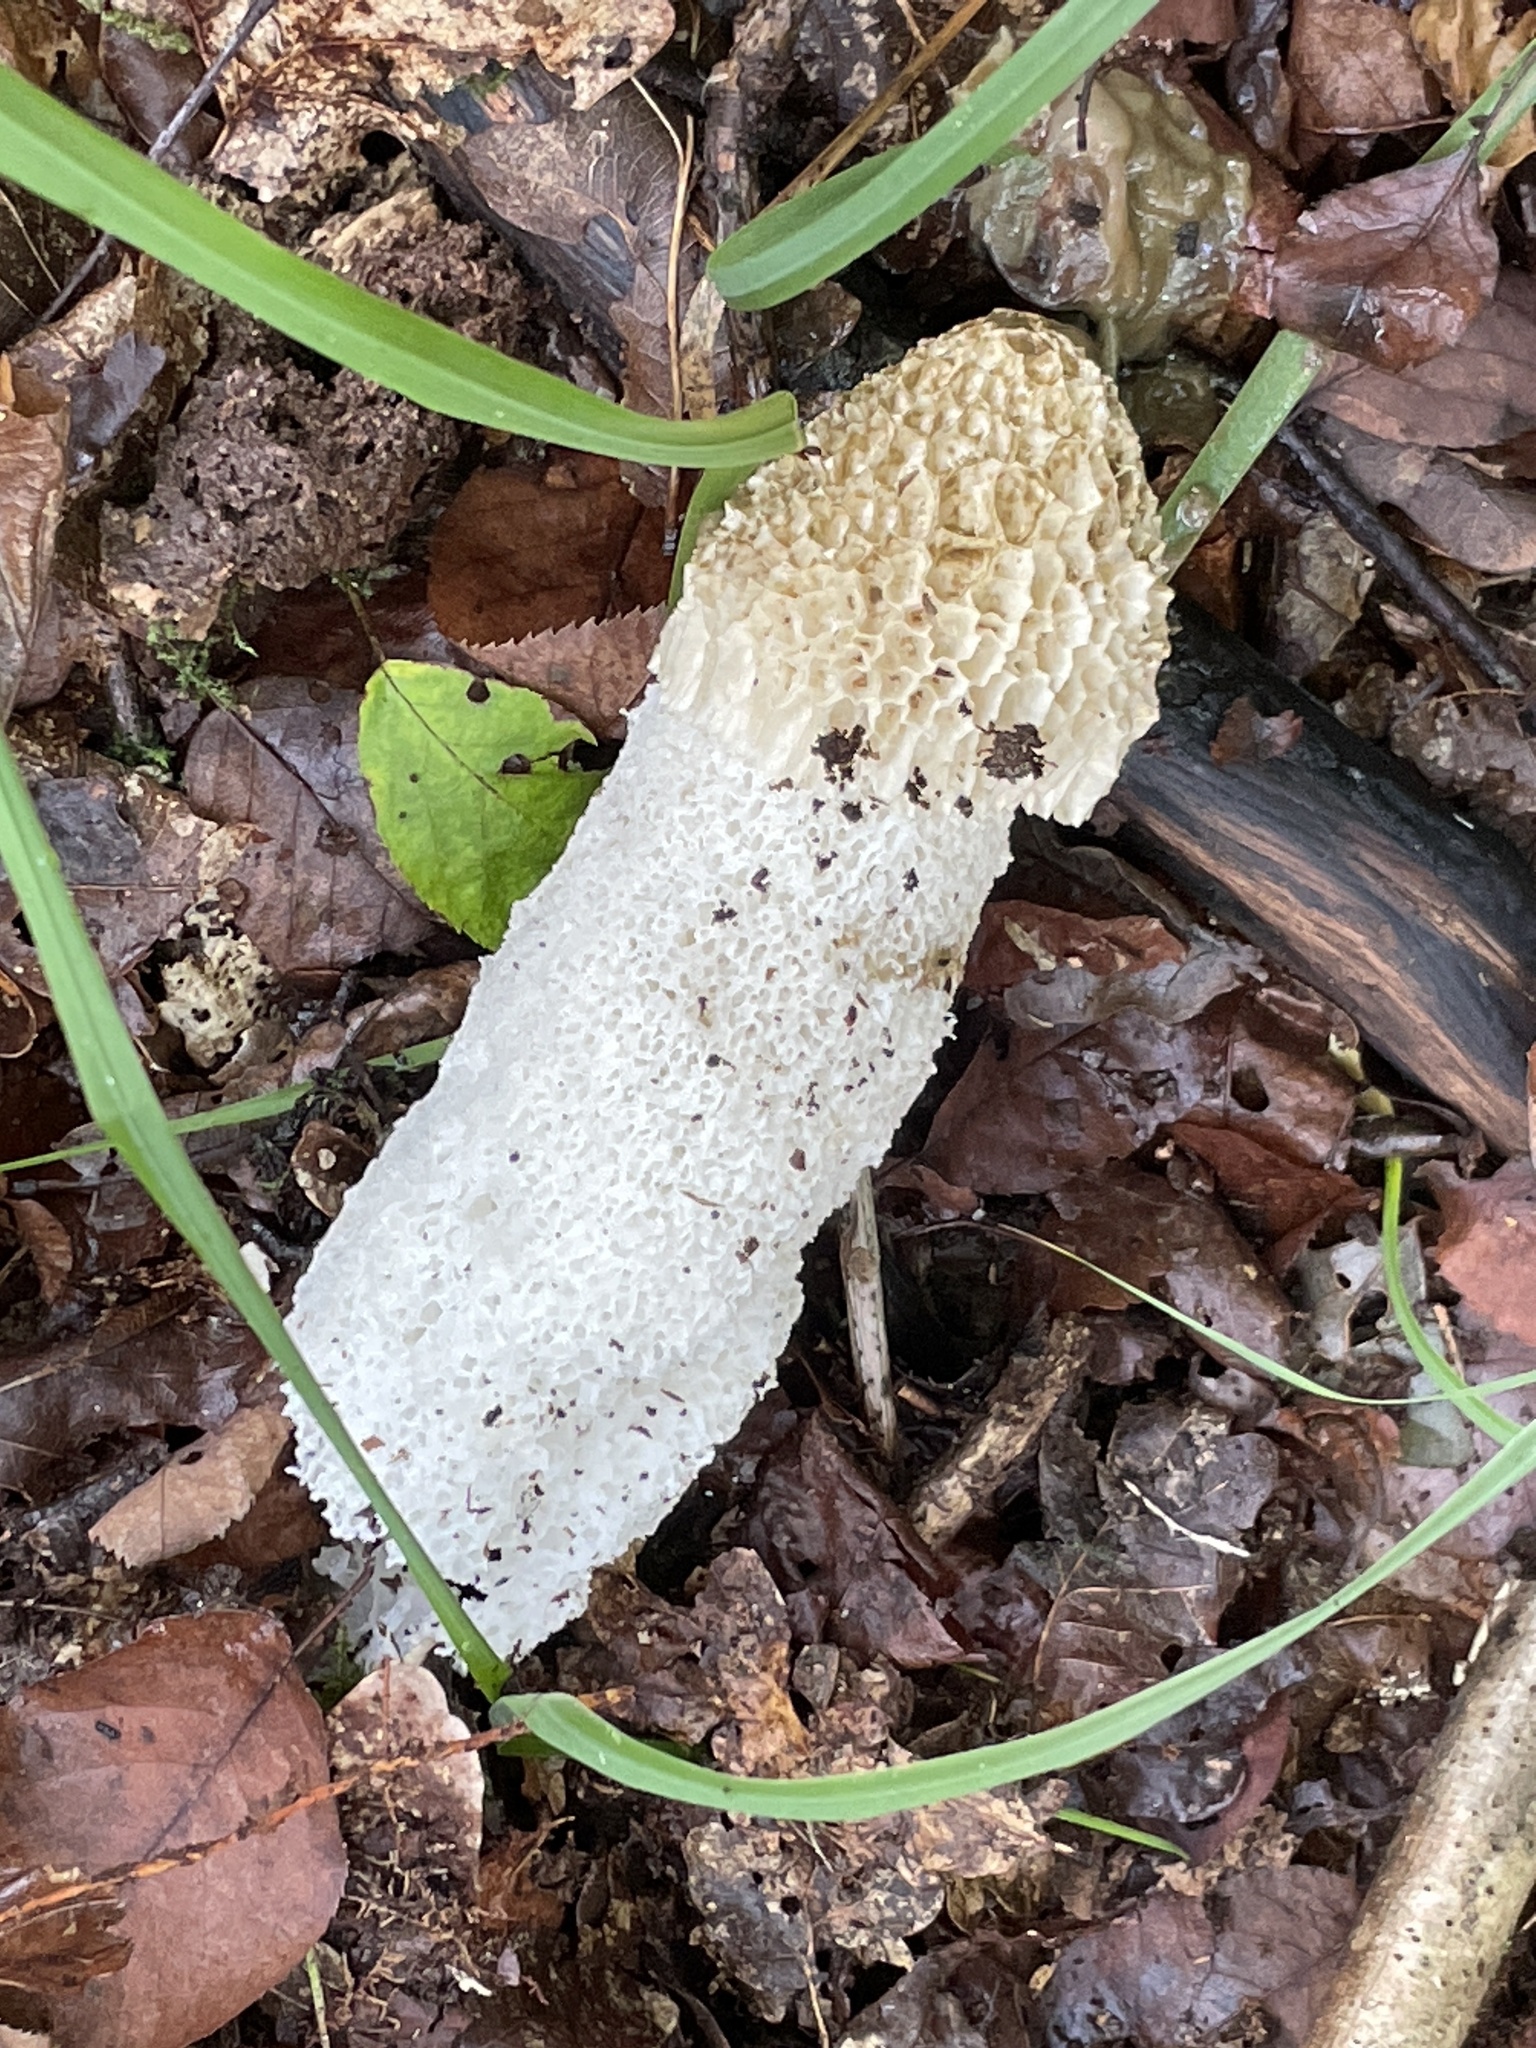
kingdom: Fungi
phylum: Basidiomycota
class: Agaricomycetes
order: Phallales
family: Phallaceae
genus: Phallus
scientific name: Phallus impudicus
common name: Common stinkhorn
